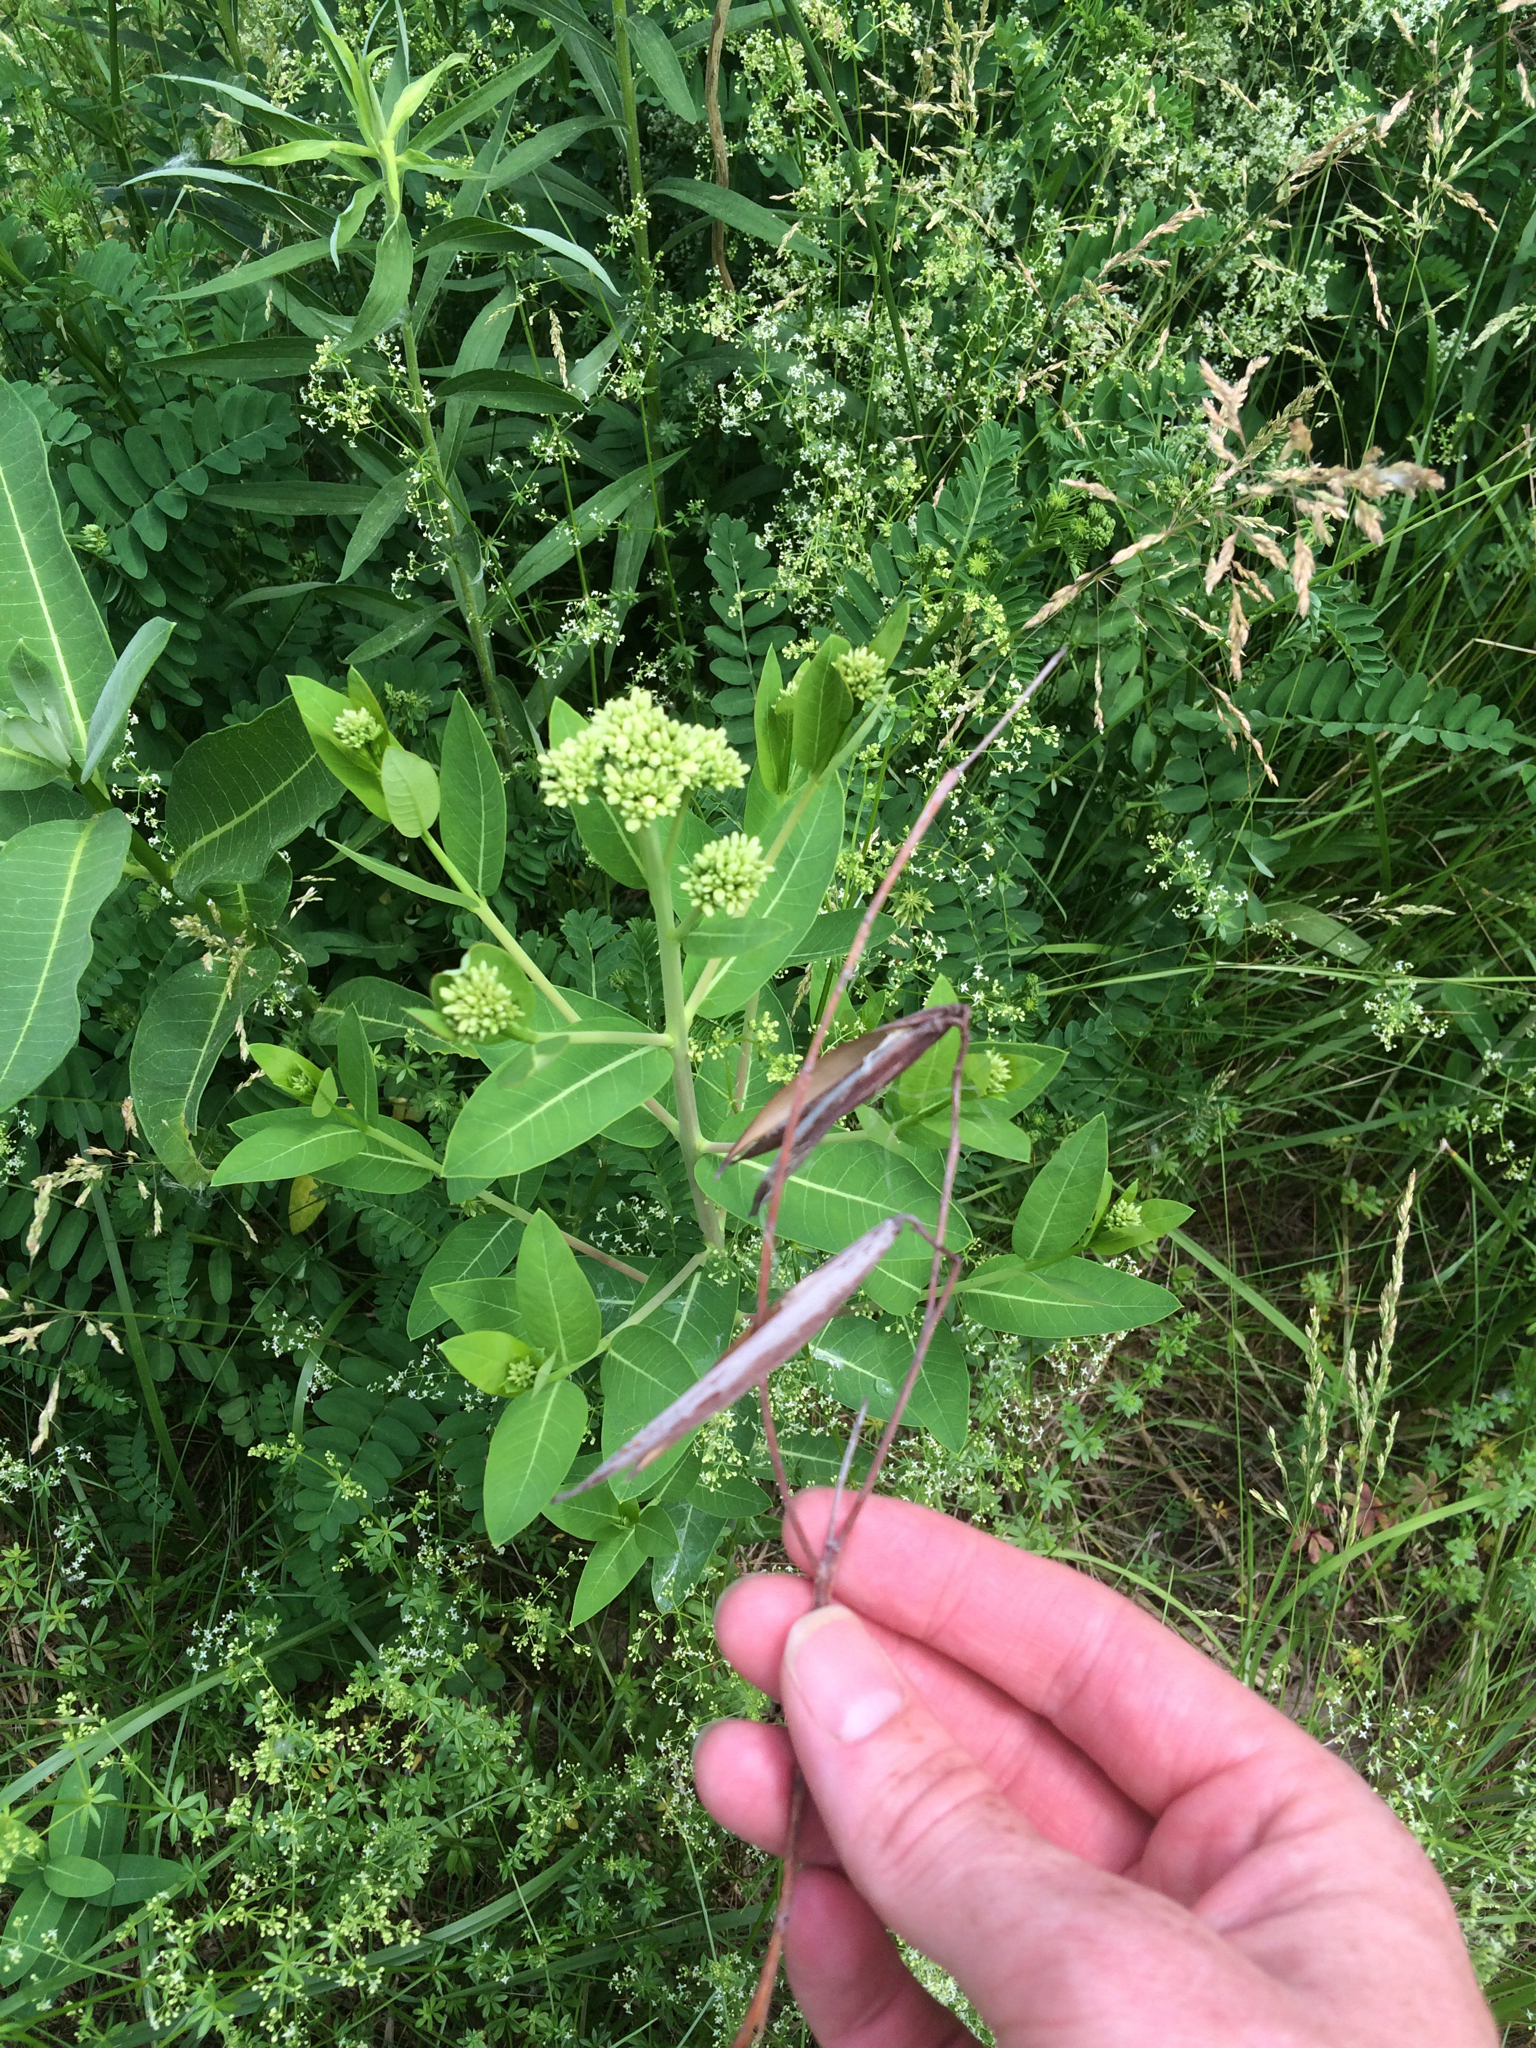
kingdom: Plantae
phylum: Tracheophyta
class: Magnoliopsida
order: Gentianales
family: Apocynaceae
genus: Apocynum
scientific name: Apocynum cannabinum
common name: Hemp dogbane
